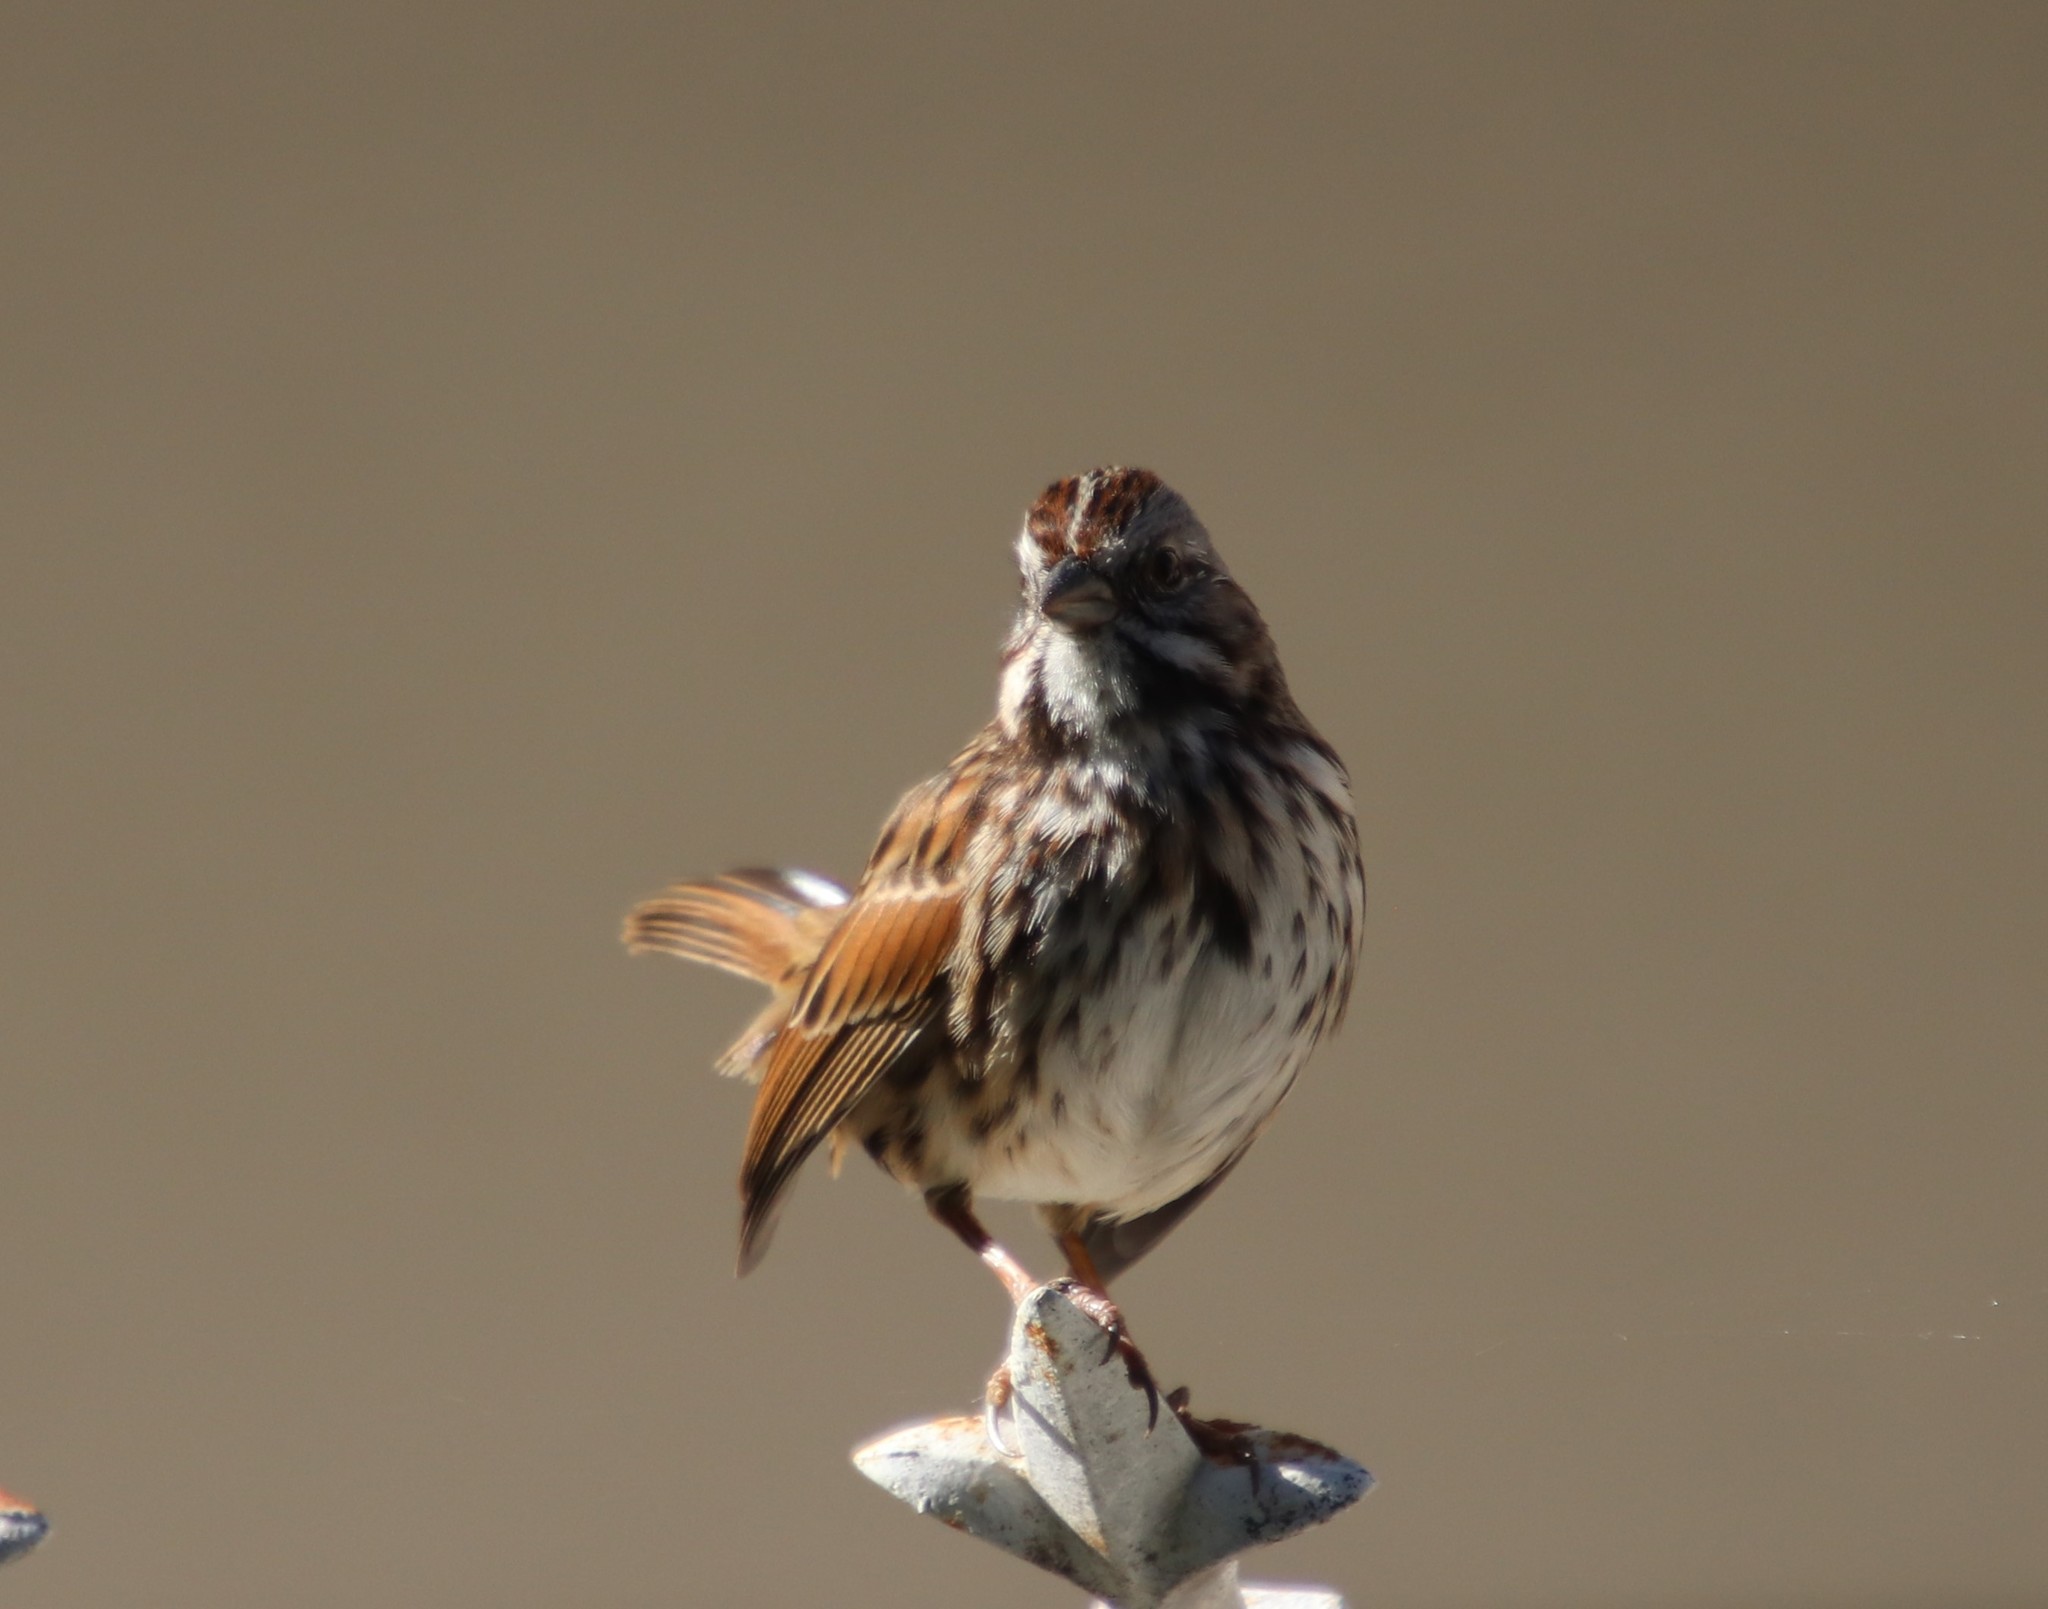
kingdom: Animalia
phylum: Chordata
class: Aves
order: Passeriformes
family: Passerellidae
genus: Melospiza
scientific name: Melospiza melodia
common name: Song sparrow
